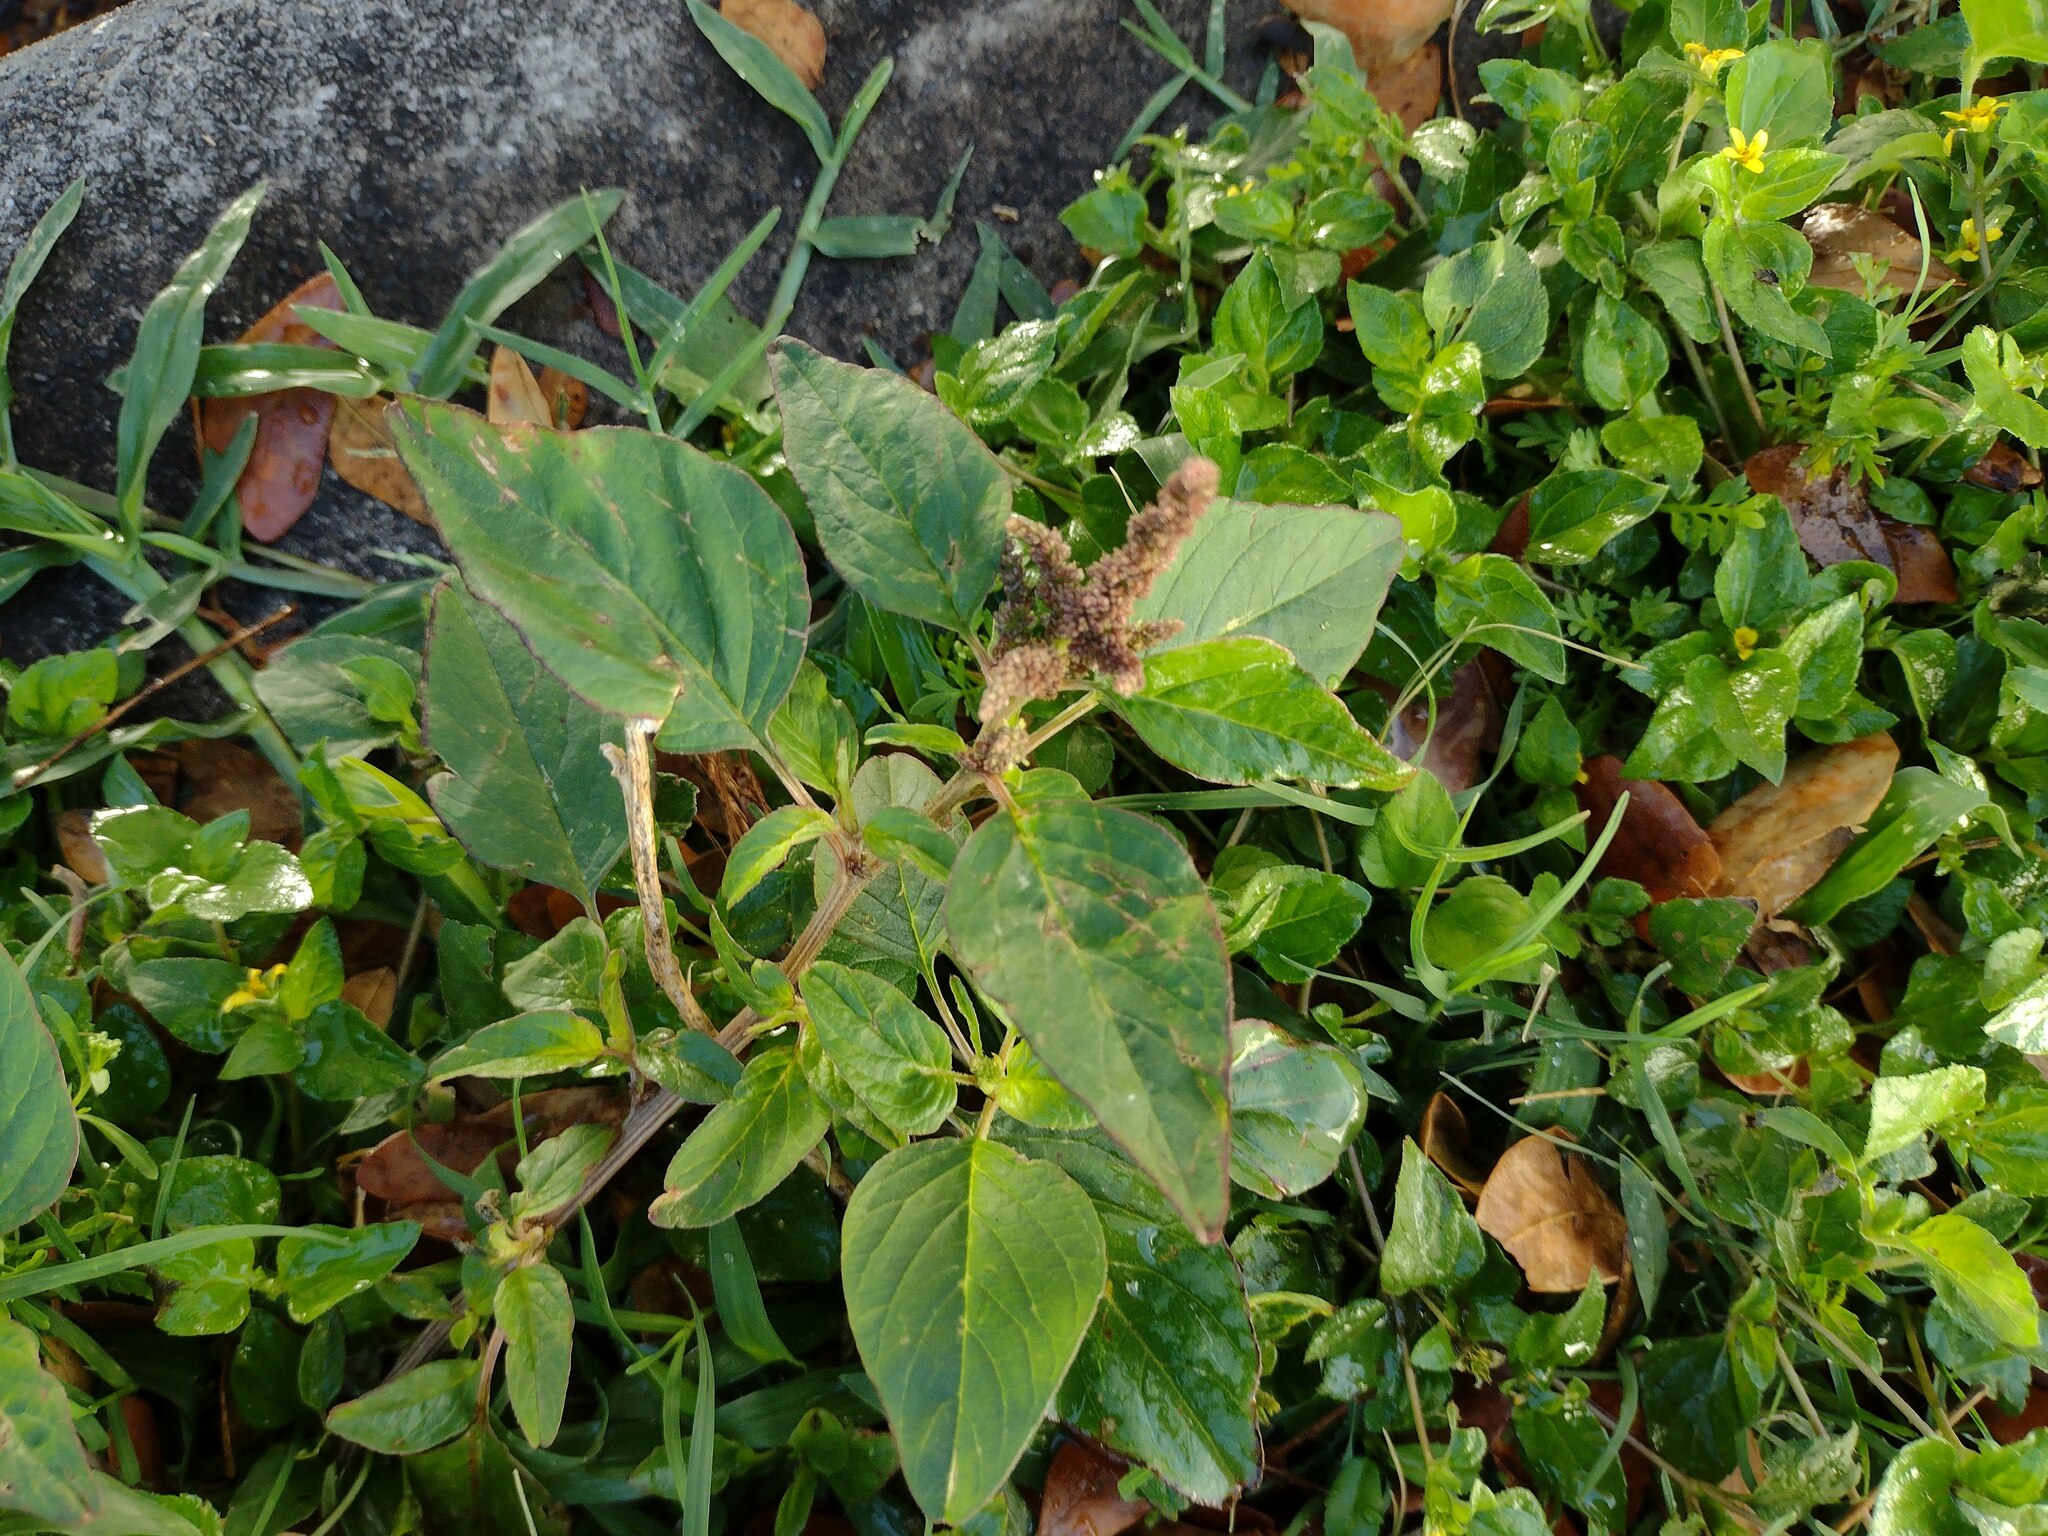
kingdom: Plantae
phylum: Tracheophyta
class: Magnoliopsida
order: Caryophyllales
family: Amaranthaceae
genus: Amaranthus
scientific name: Amaranthus viridis
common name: Slender amaranth
